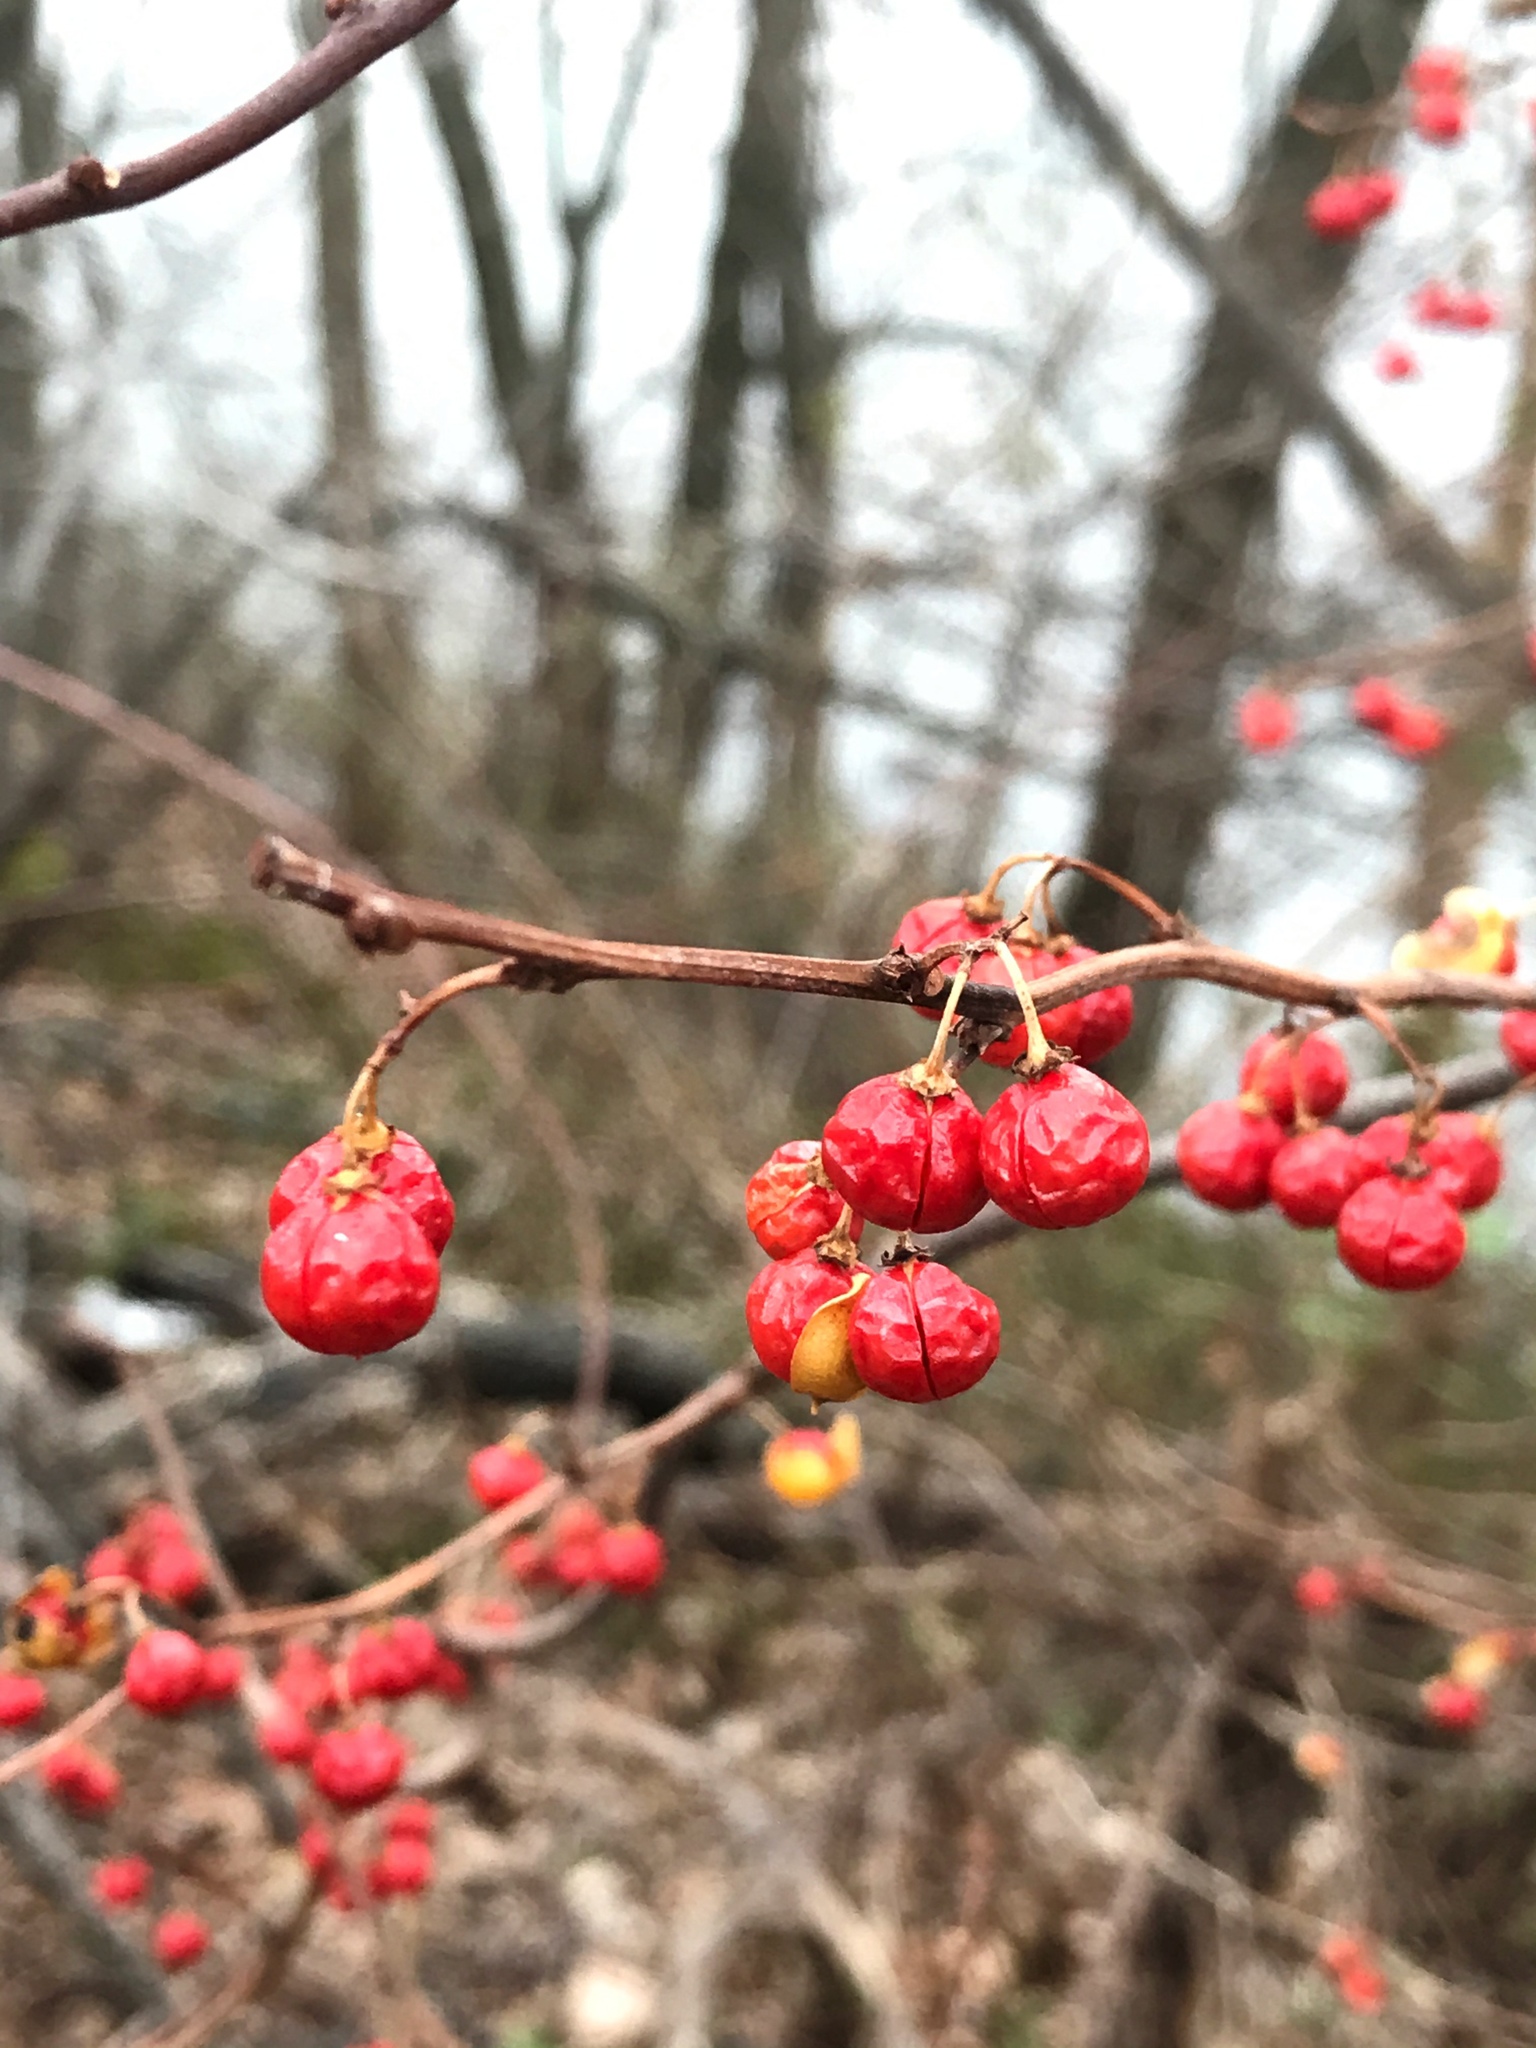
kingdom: Plantae
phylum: Tracheophyta
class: Magnoliopsida
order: Celastrales
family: Celastraceae
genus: Celastrus
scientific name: Celastrus orbiculatus
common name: Oriental bittersweet
